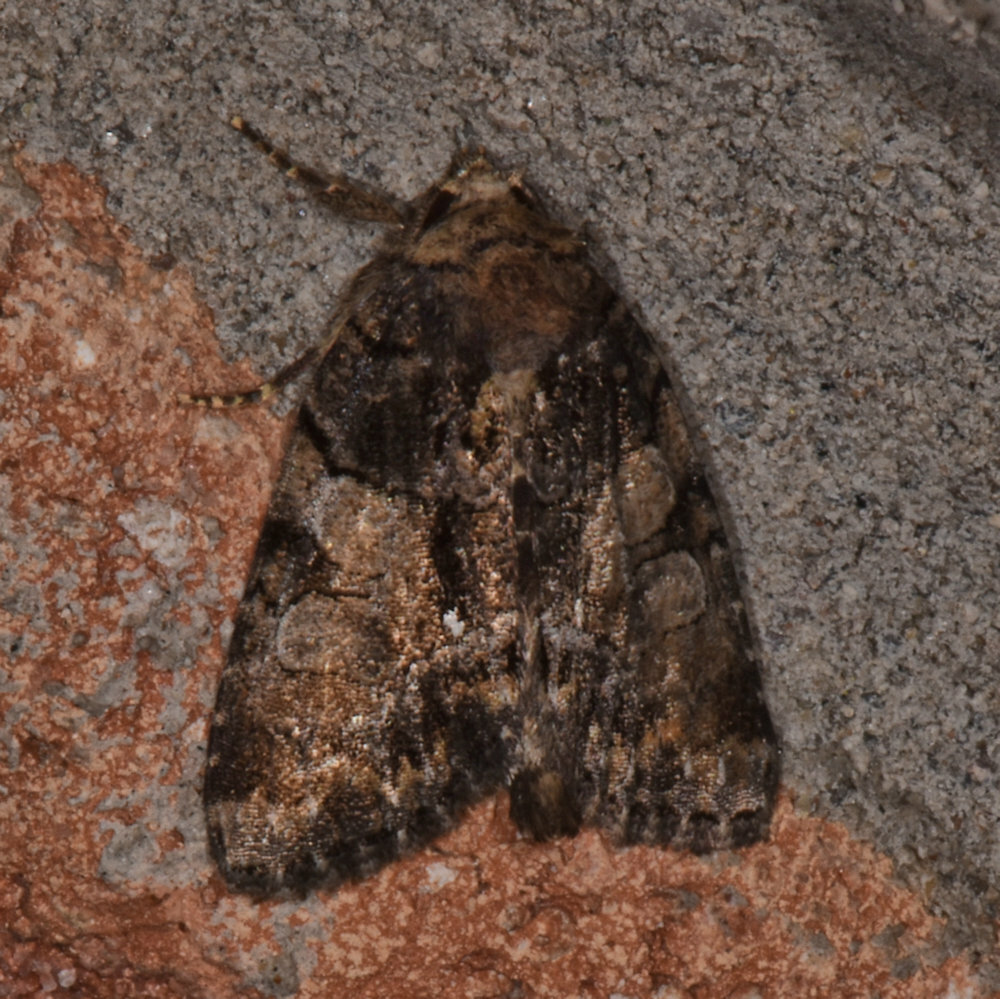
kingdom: Animalia
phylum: Arthropoda
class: Insecta
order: Lepidoptera
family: Noctuidae
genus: Chytonix
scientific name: Chytonix palliatricula
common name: Cloaked marvel
